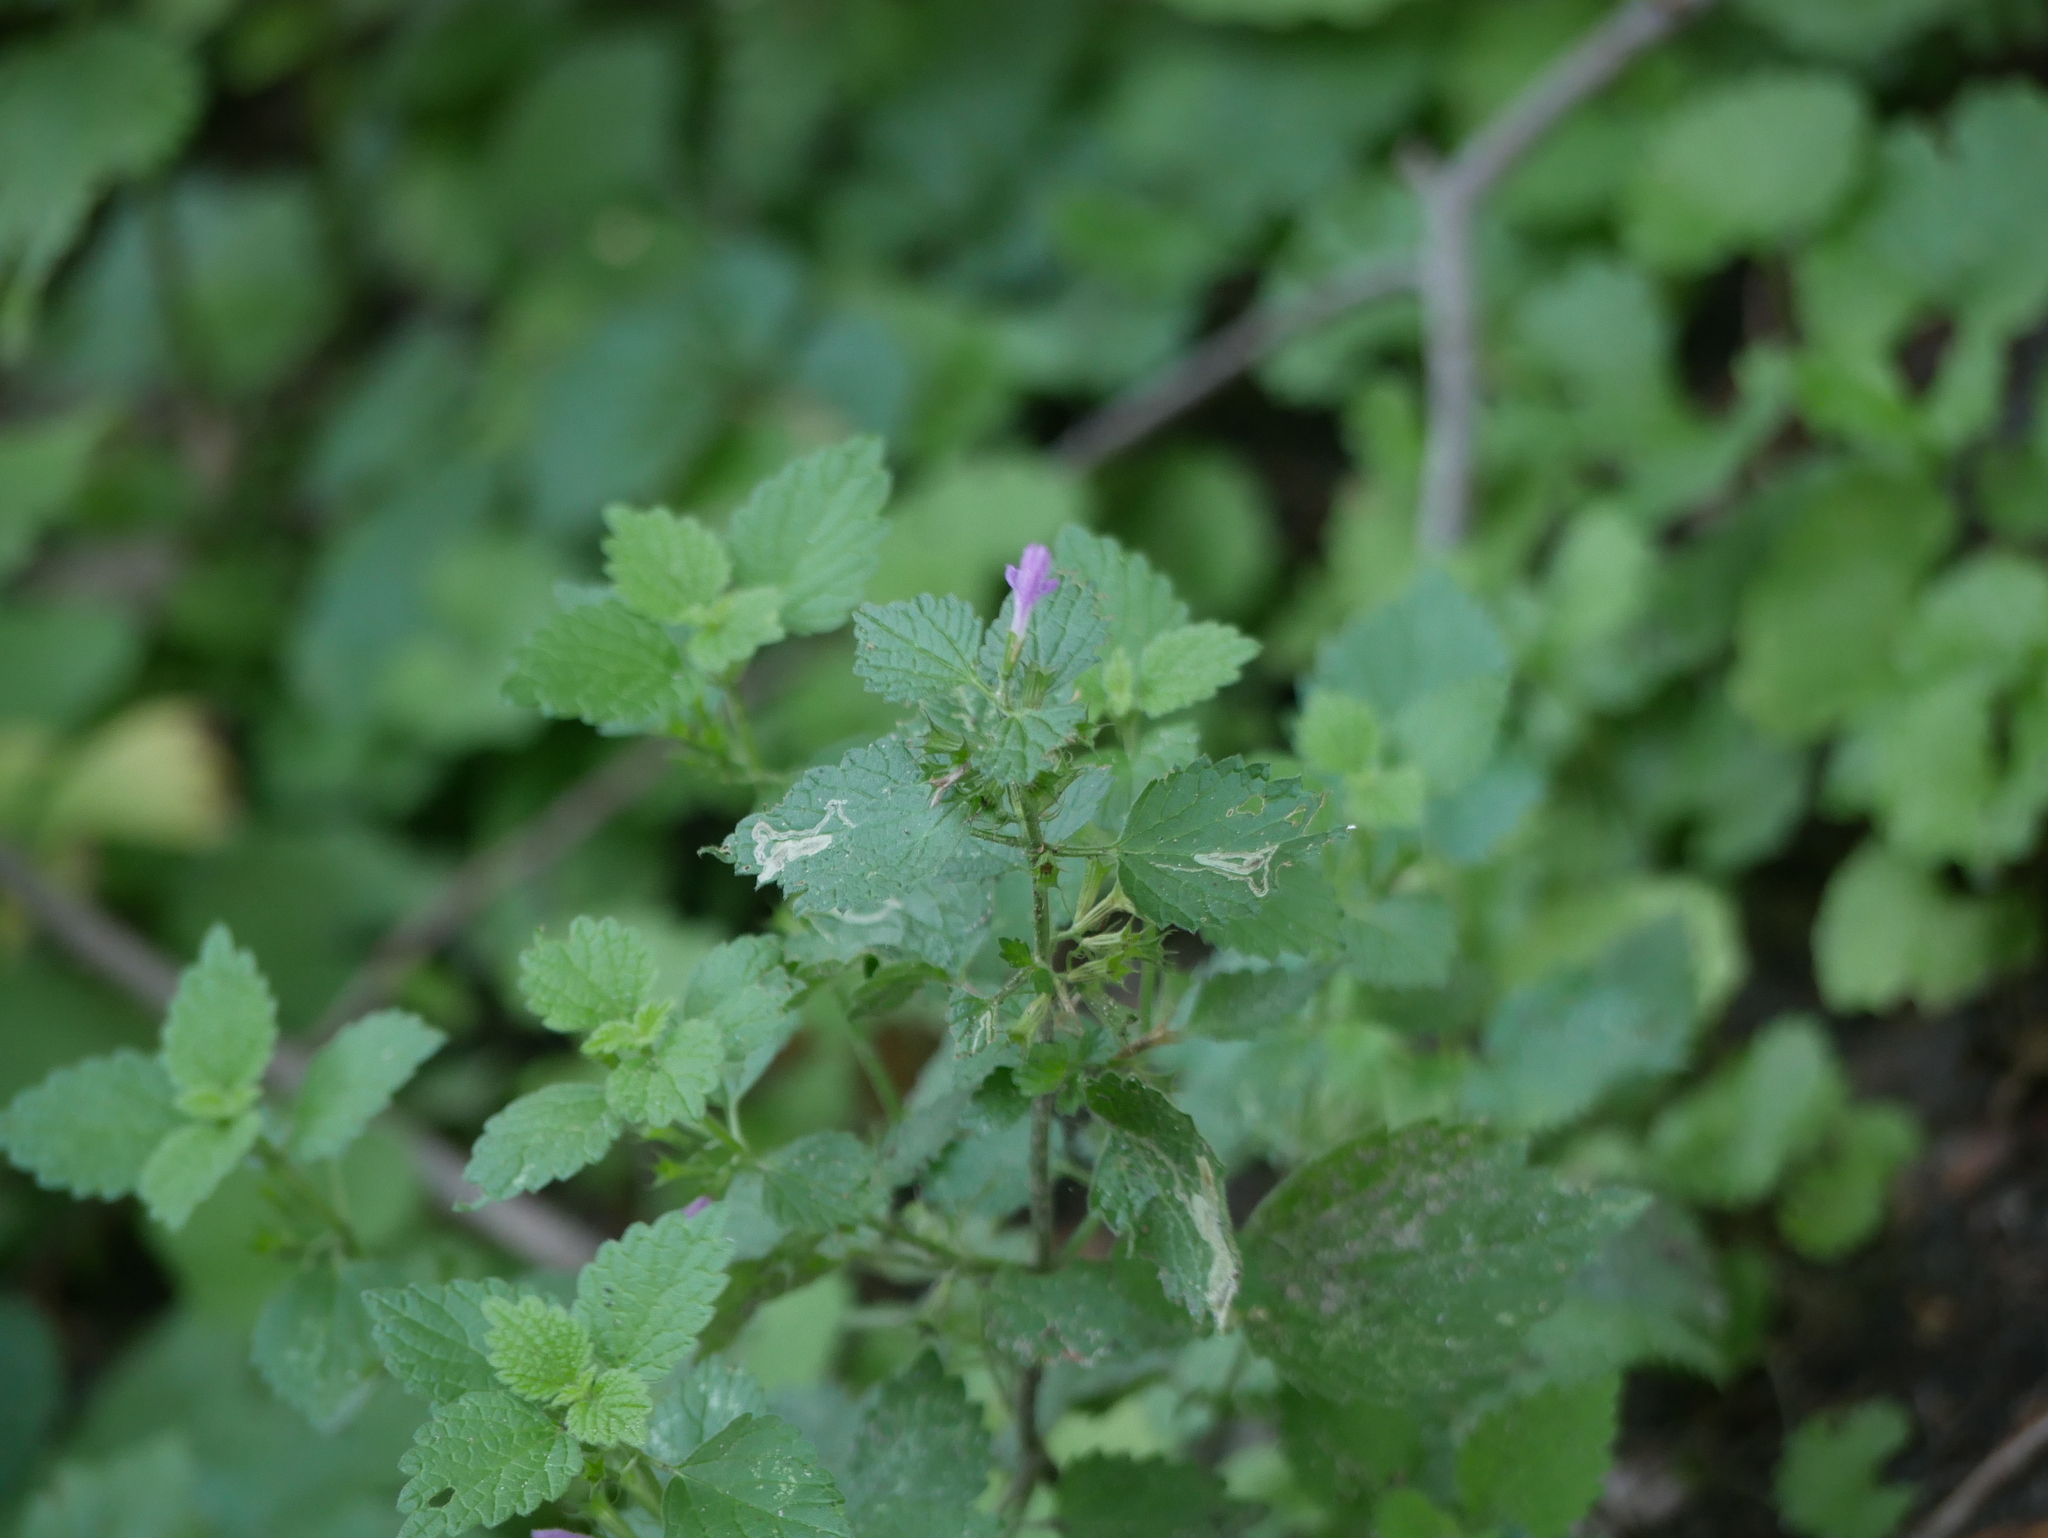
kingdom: Plantae
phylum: Tracheophyta
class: Magnoliopsida
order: Lamiales
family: Lamiaceae
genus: Ballota
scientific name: Ballota nigra
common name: Black horehound
